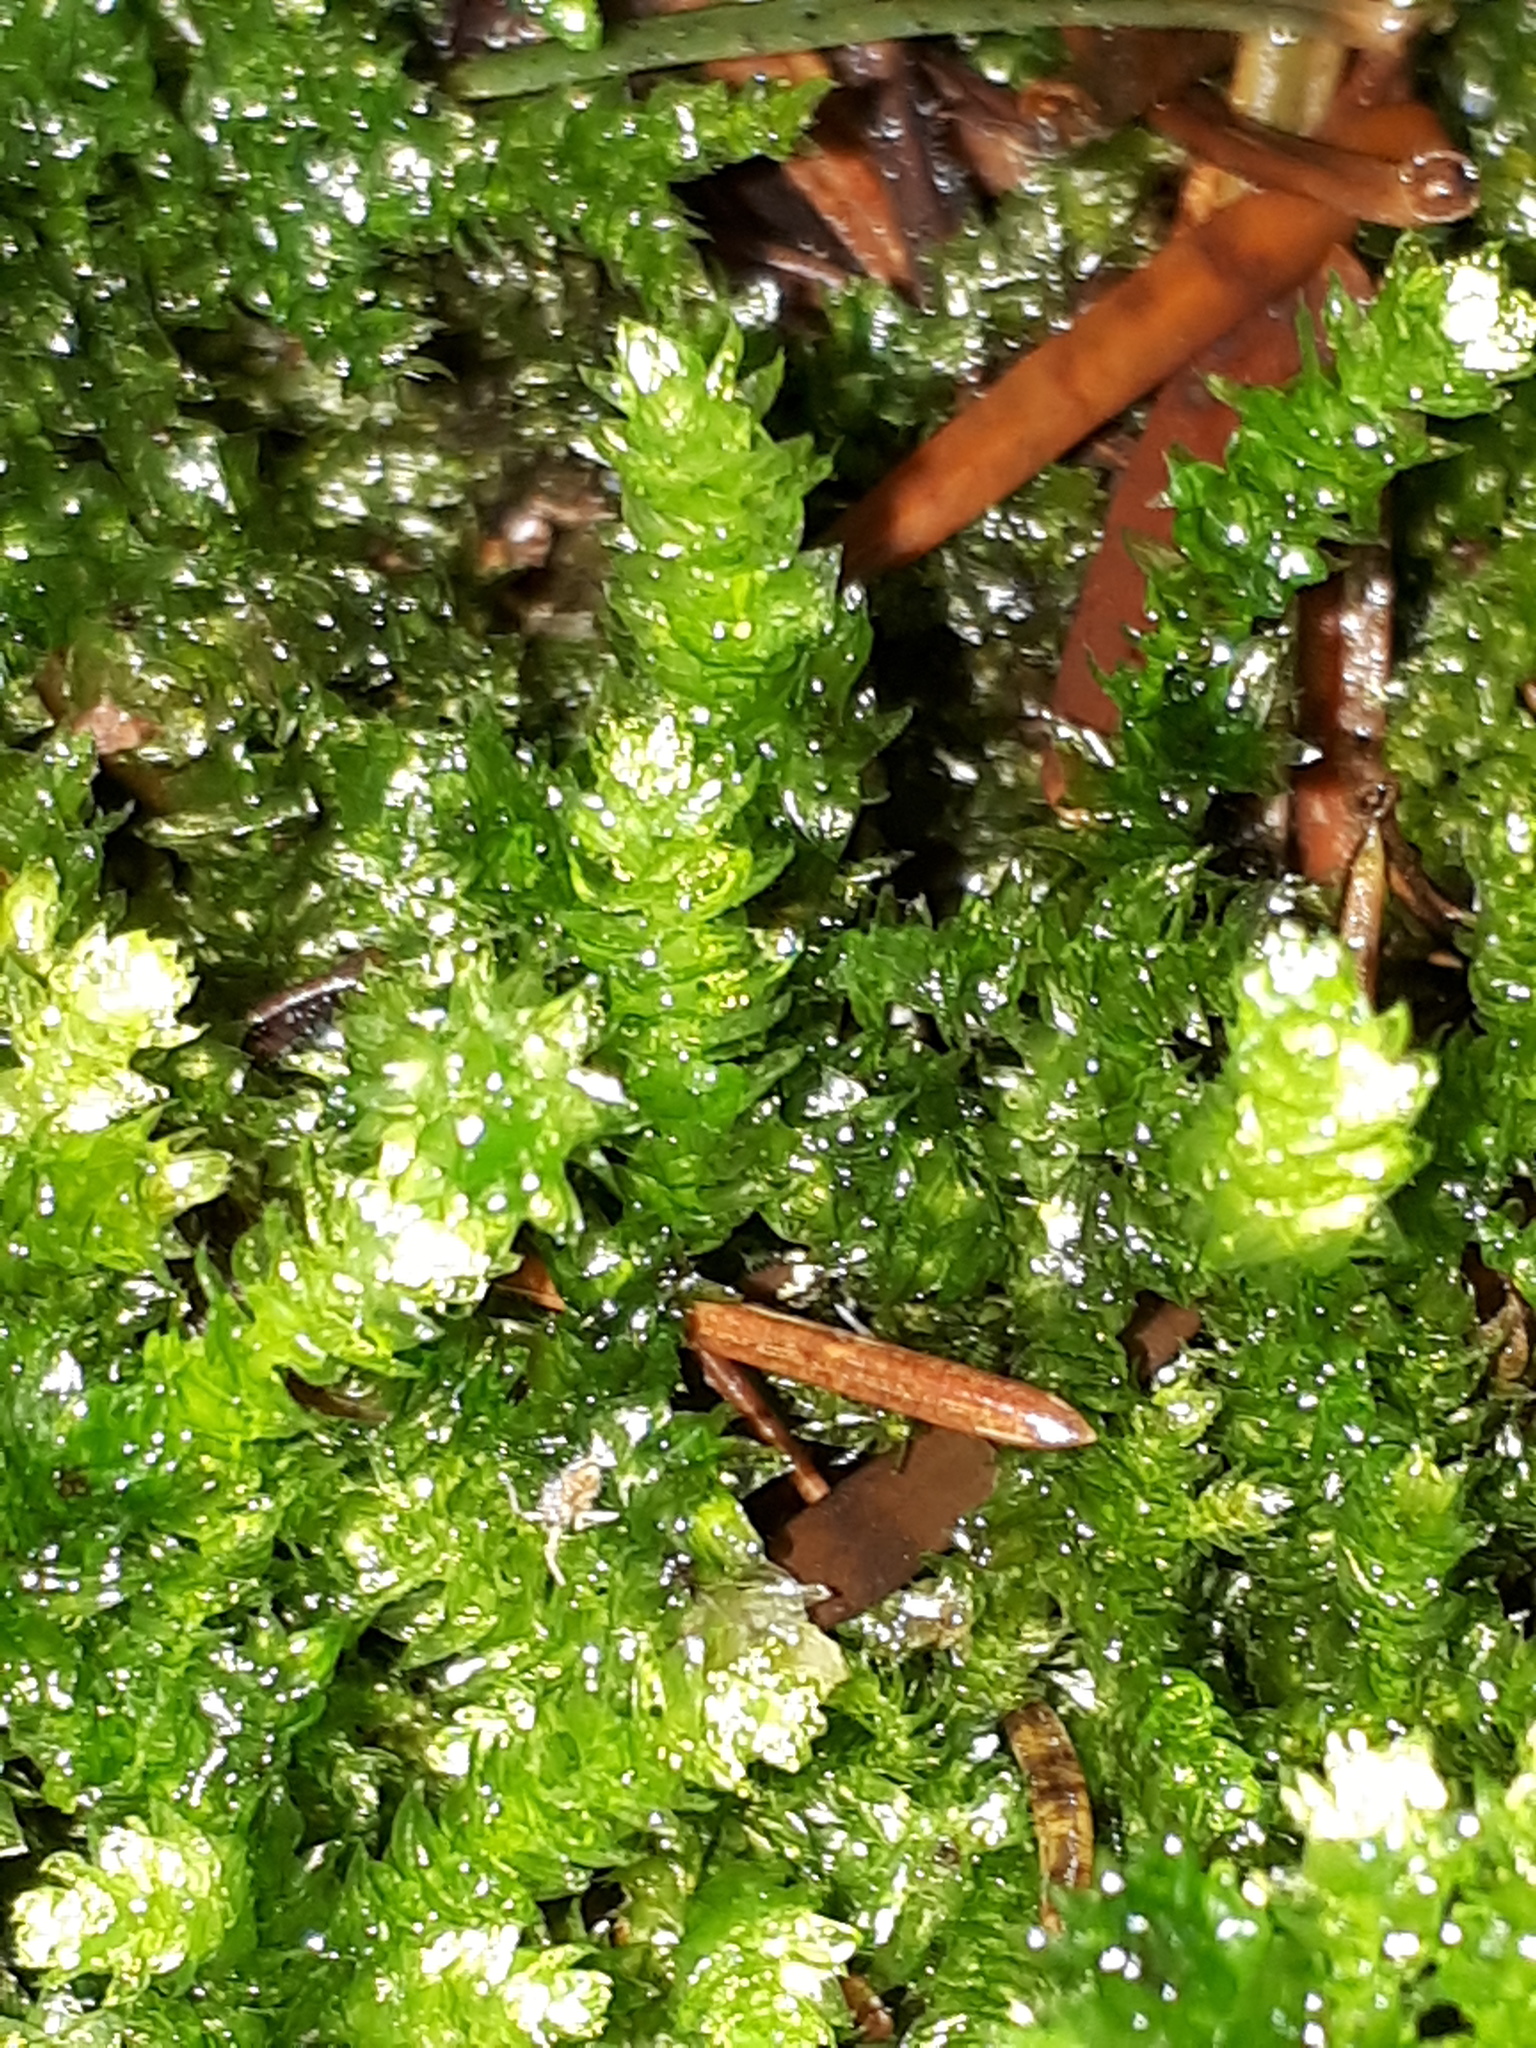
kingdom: Plantae
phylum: Bryophyta
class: Bryopsida
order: Hypnales
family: Brachytheciaceae
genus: Eurhynchium
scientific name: Eurhynchium angustirete
